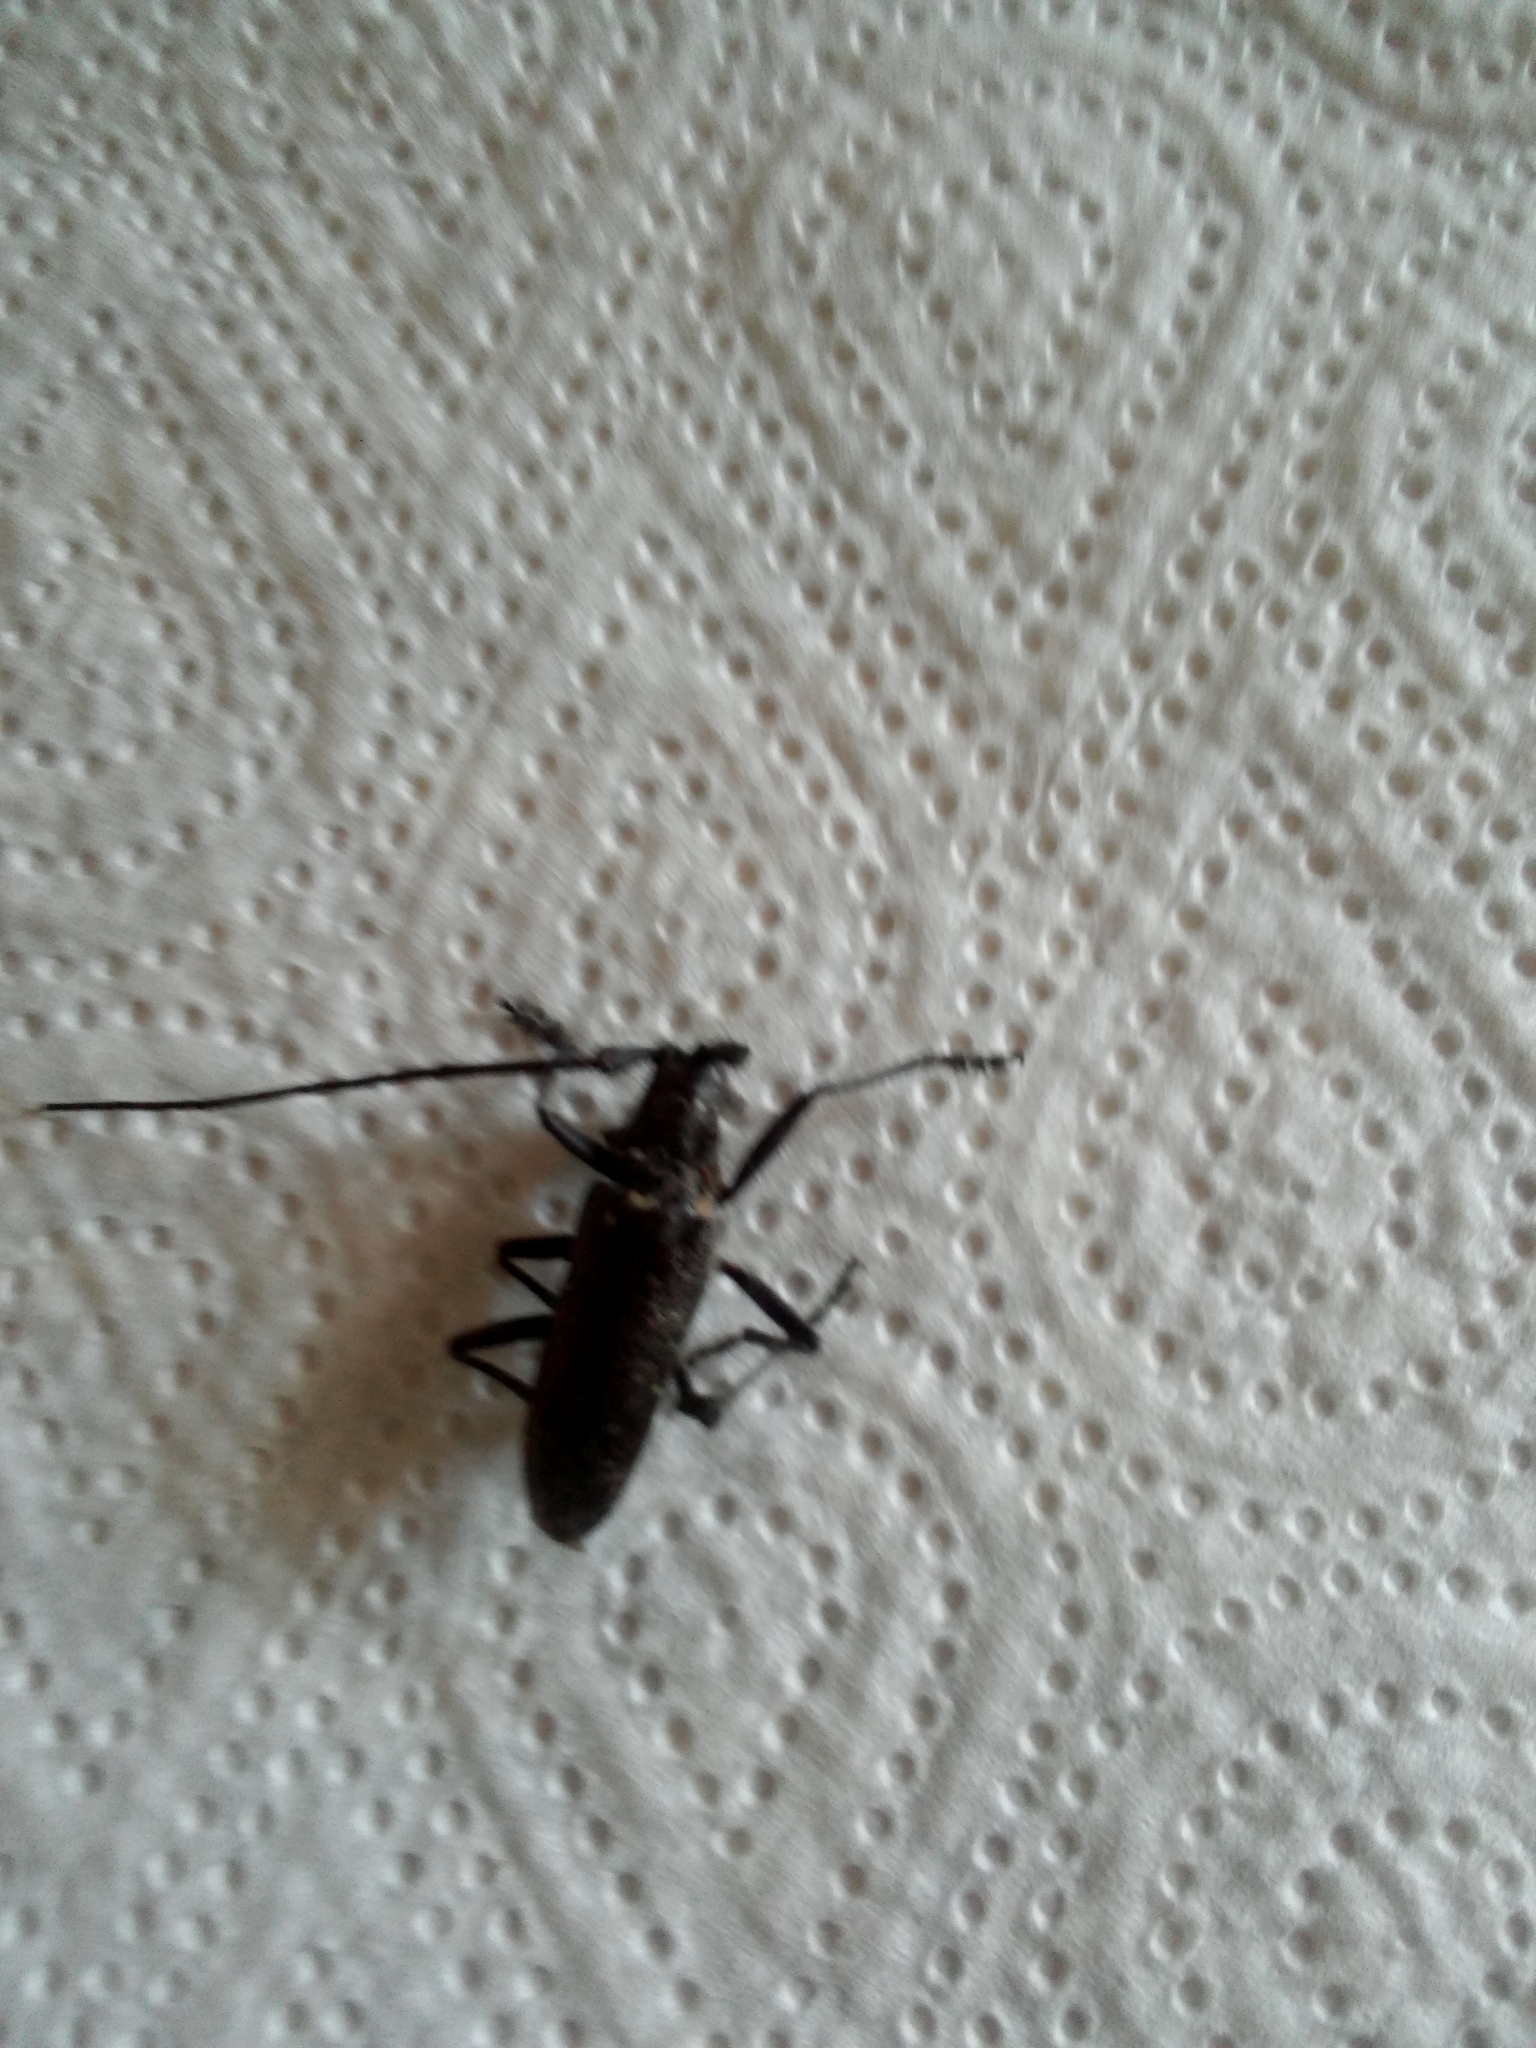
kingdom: Animalia
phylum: Arthropoda
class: Insecta
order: Coleoptera
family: Cerambycidae
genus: Monochamus
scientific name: Monochamus sutor
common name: Pine sawyer
